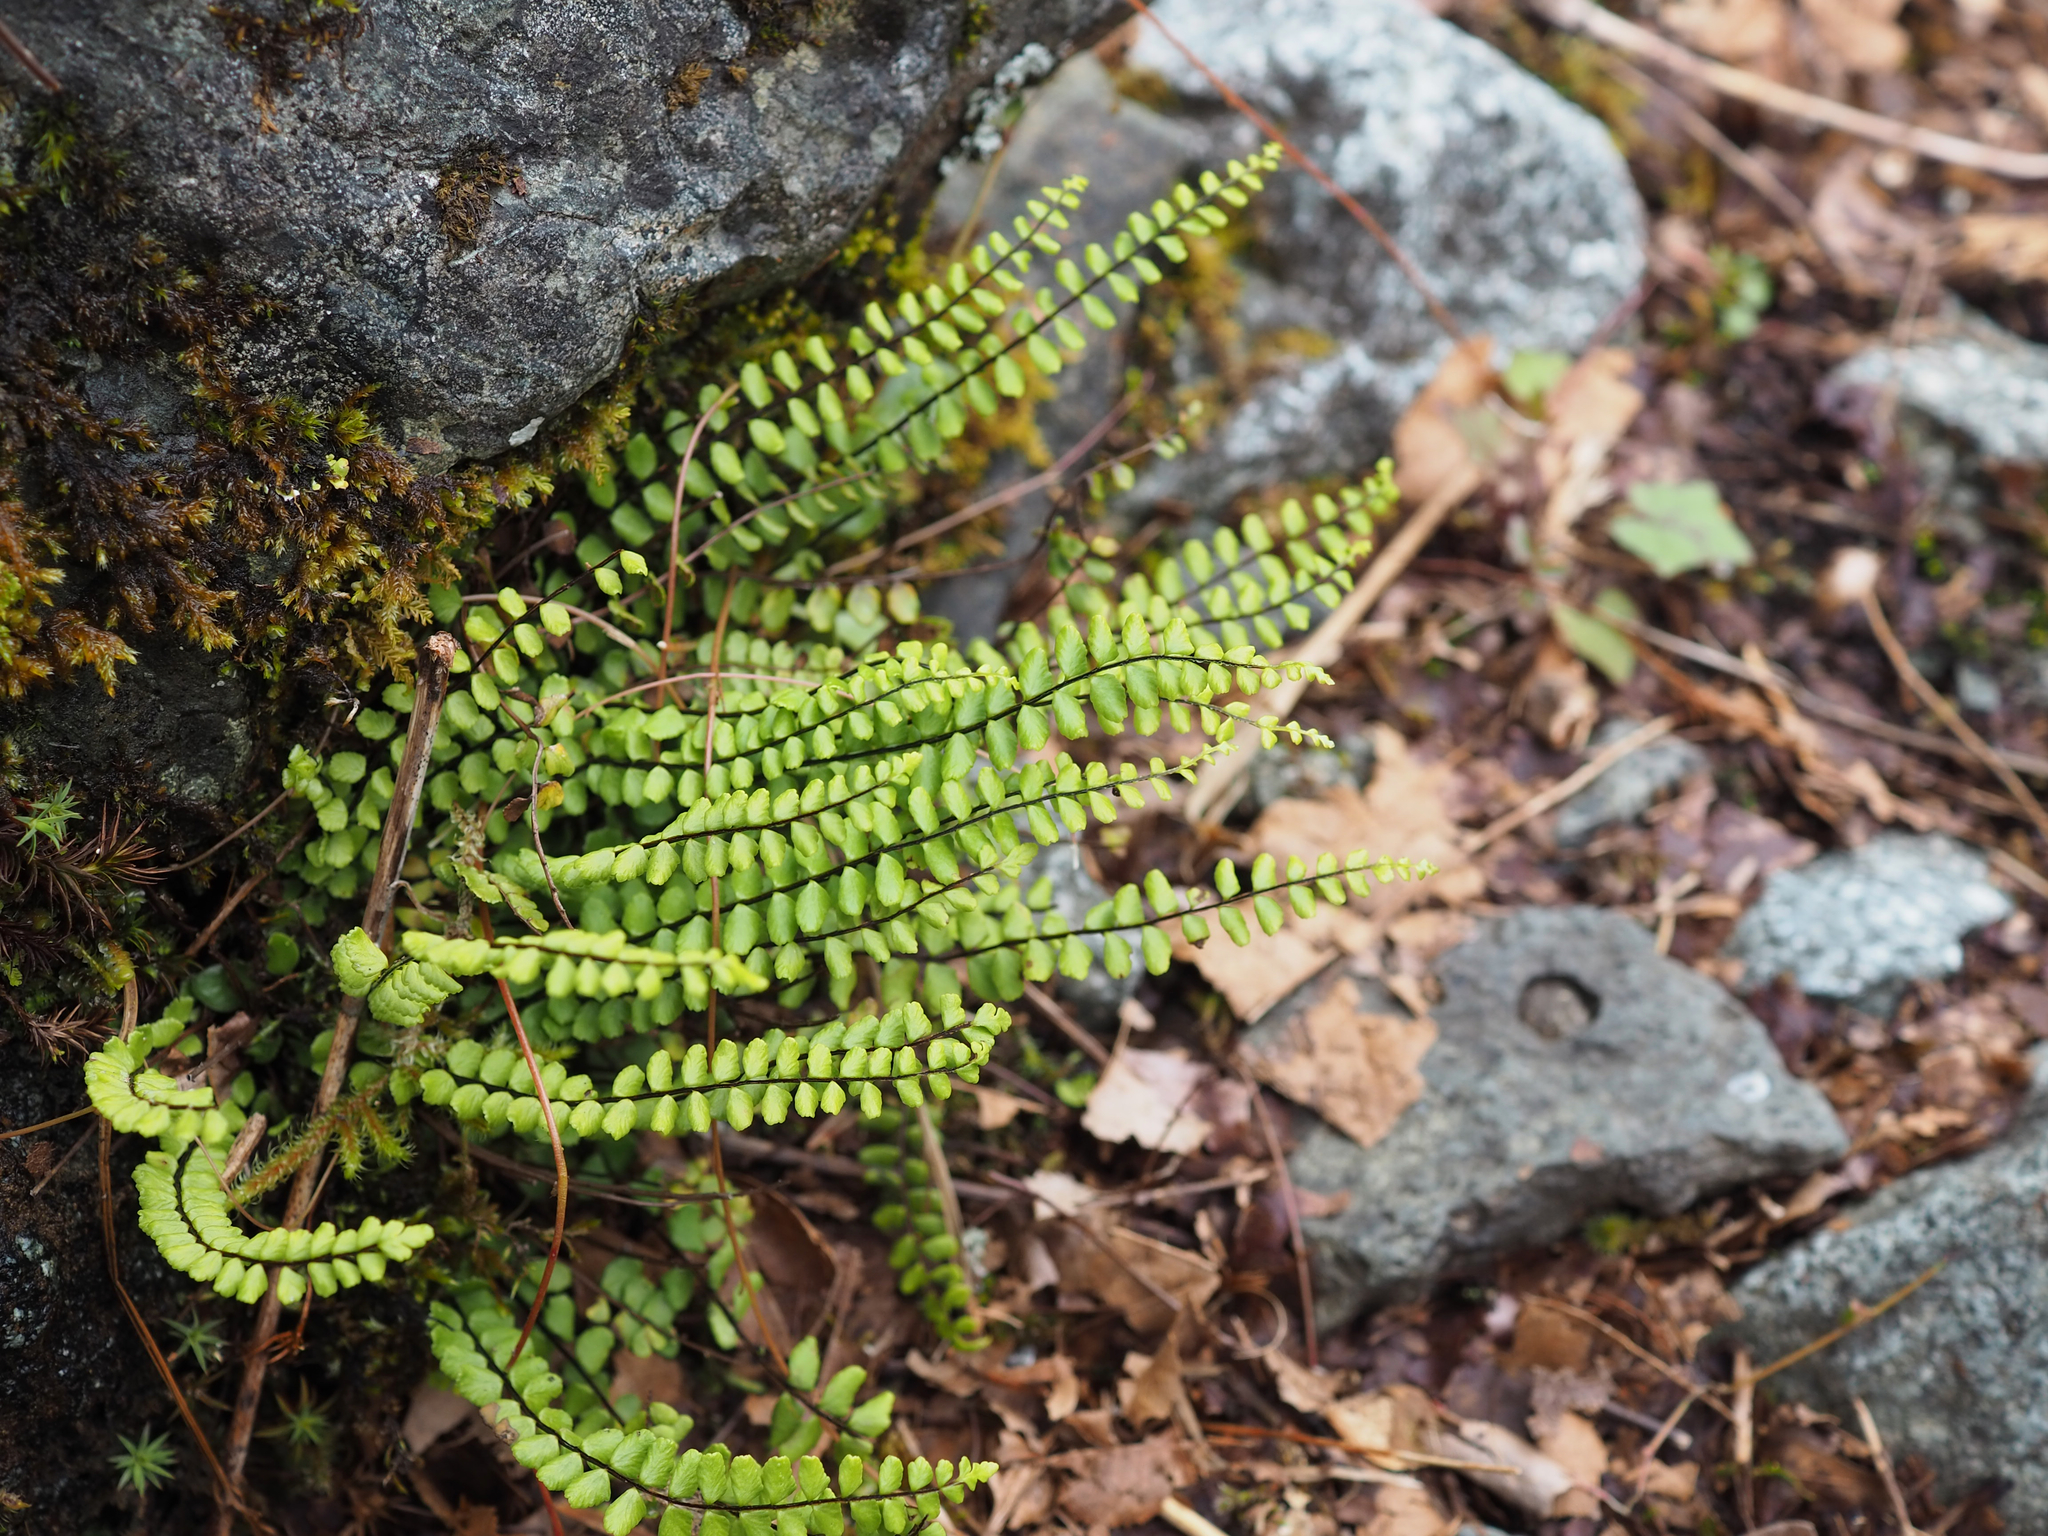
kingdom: Plantae
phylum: Tracheophyta
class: Polypodiopsida
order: Polypodiales
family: Aspleniaceae
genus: Asplenium
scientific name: Asplenium trichomanes
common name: Maidenhair spleenwort
